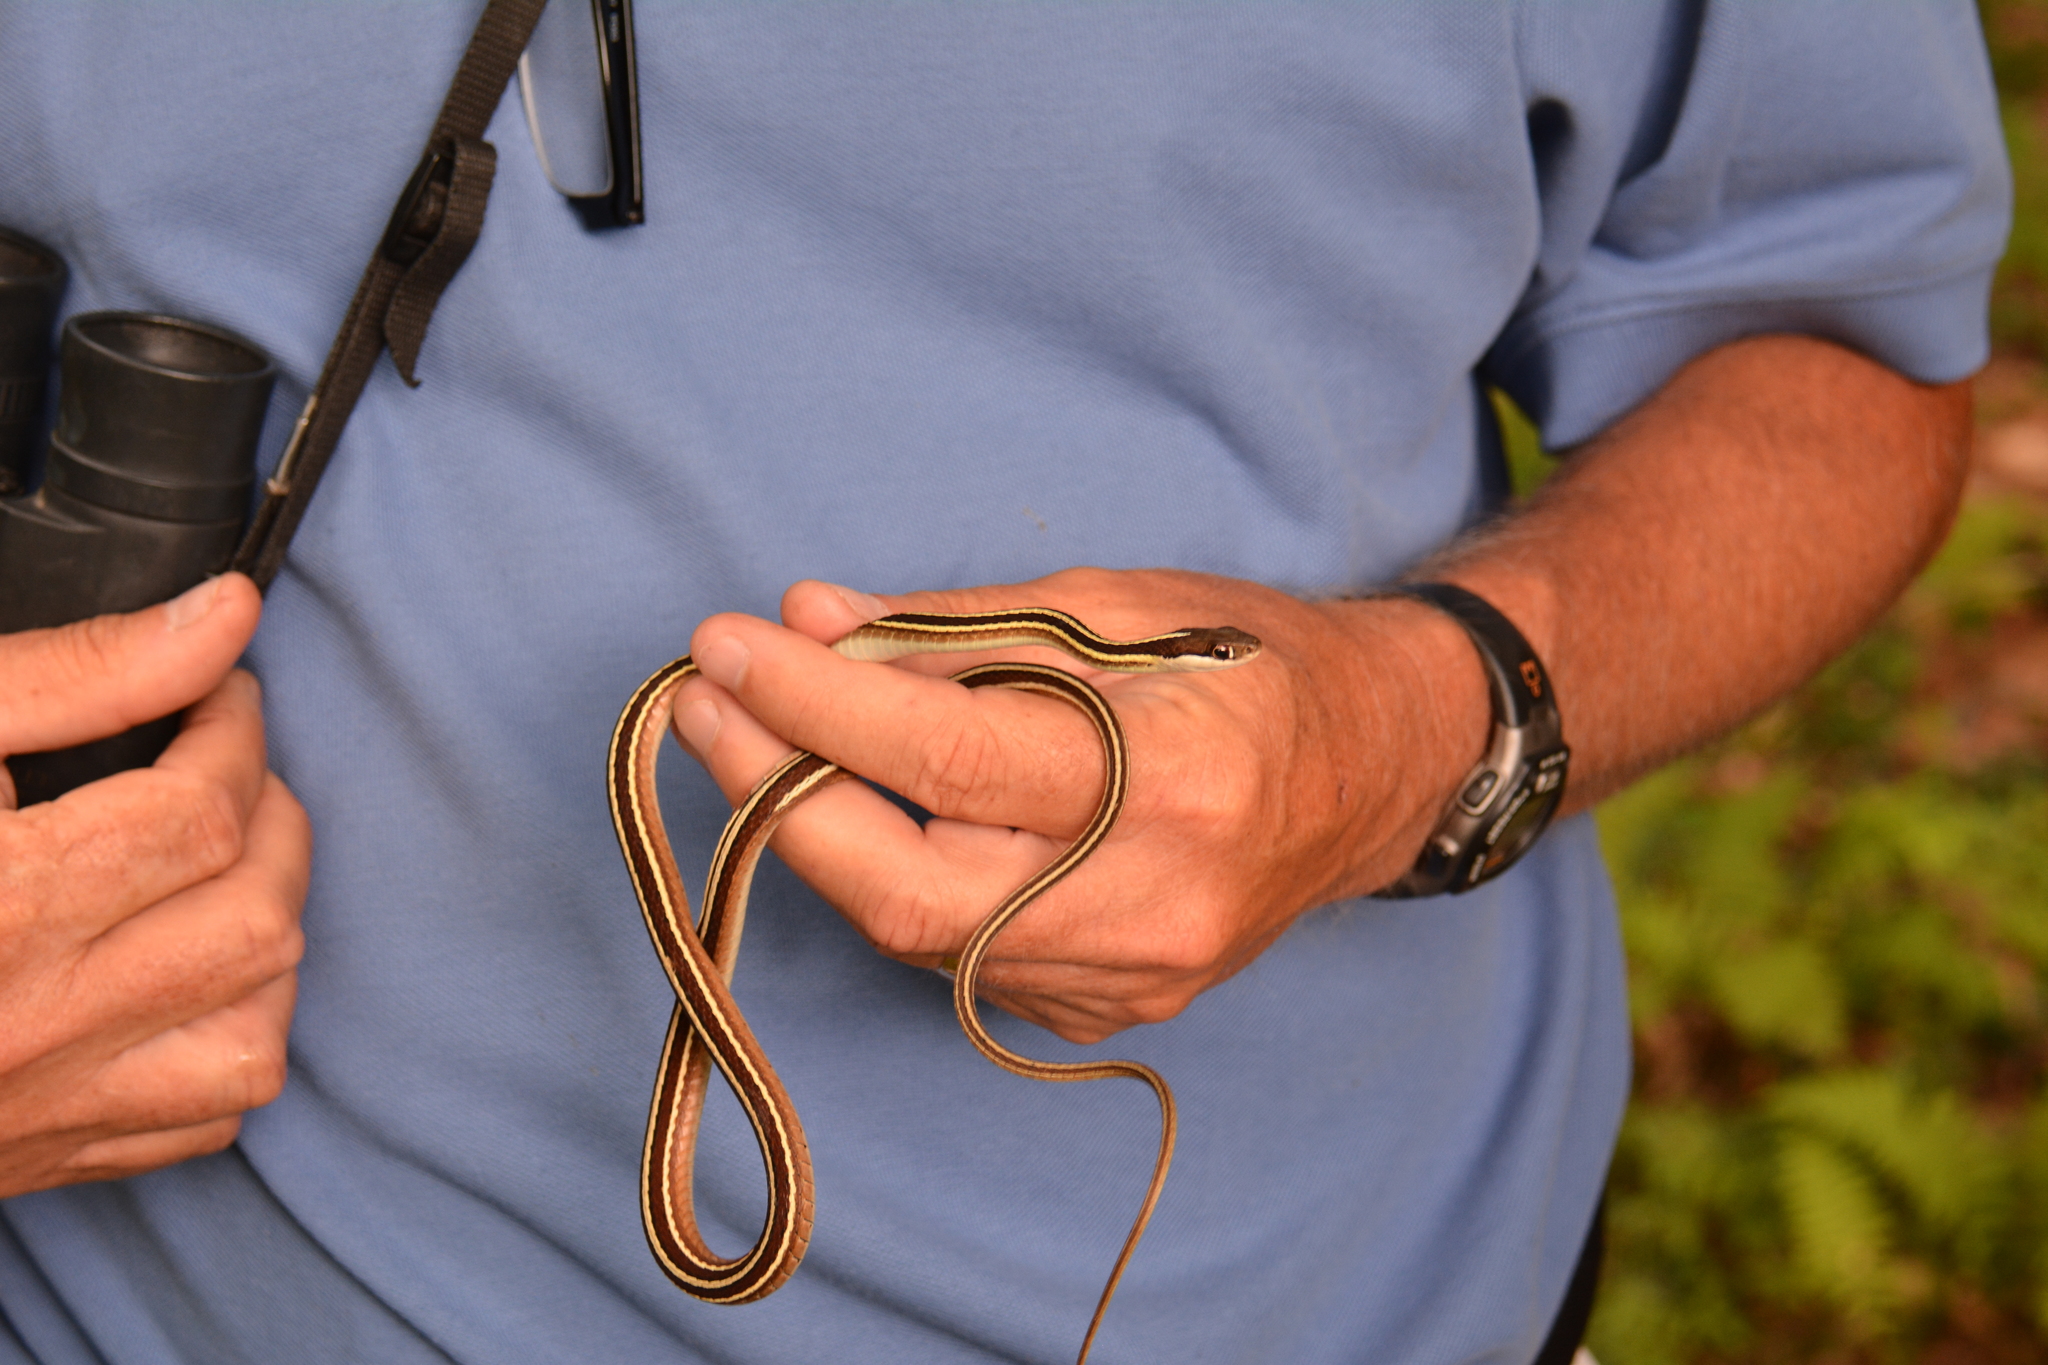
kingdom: Animalia
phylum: Chordata
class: Squamata
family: Colubridae
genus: Thamnophis
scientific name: Thamnophis saurita
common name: Eastern ribbonsnake
